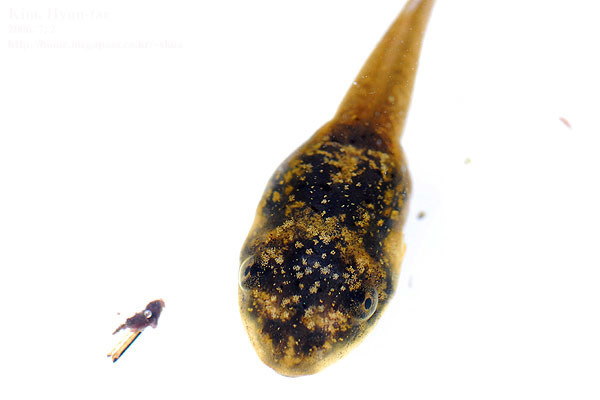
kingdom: Animalia
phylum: Chordata
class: Amphibia
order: Anura
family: Ranidae
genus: Lithobates
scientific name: Lithobates catesbeianus
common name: American bullfrog
